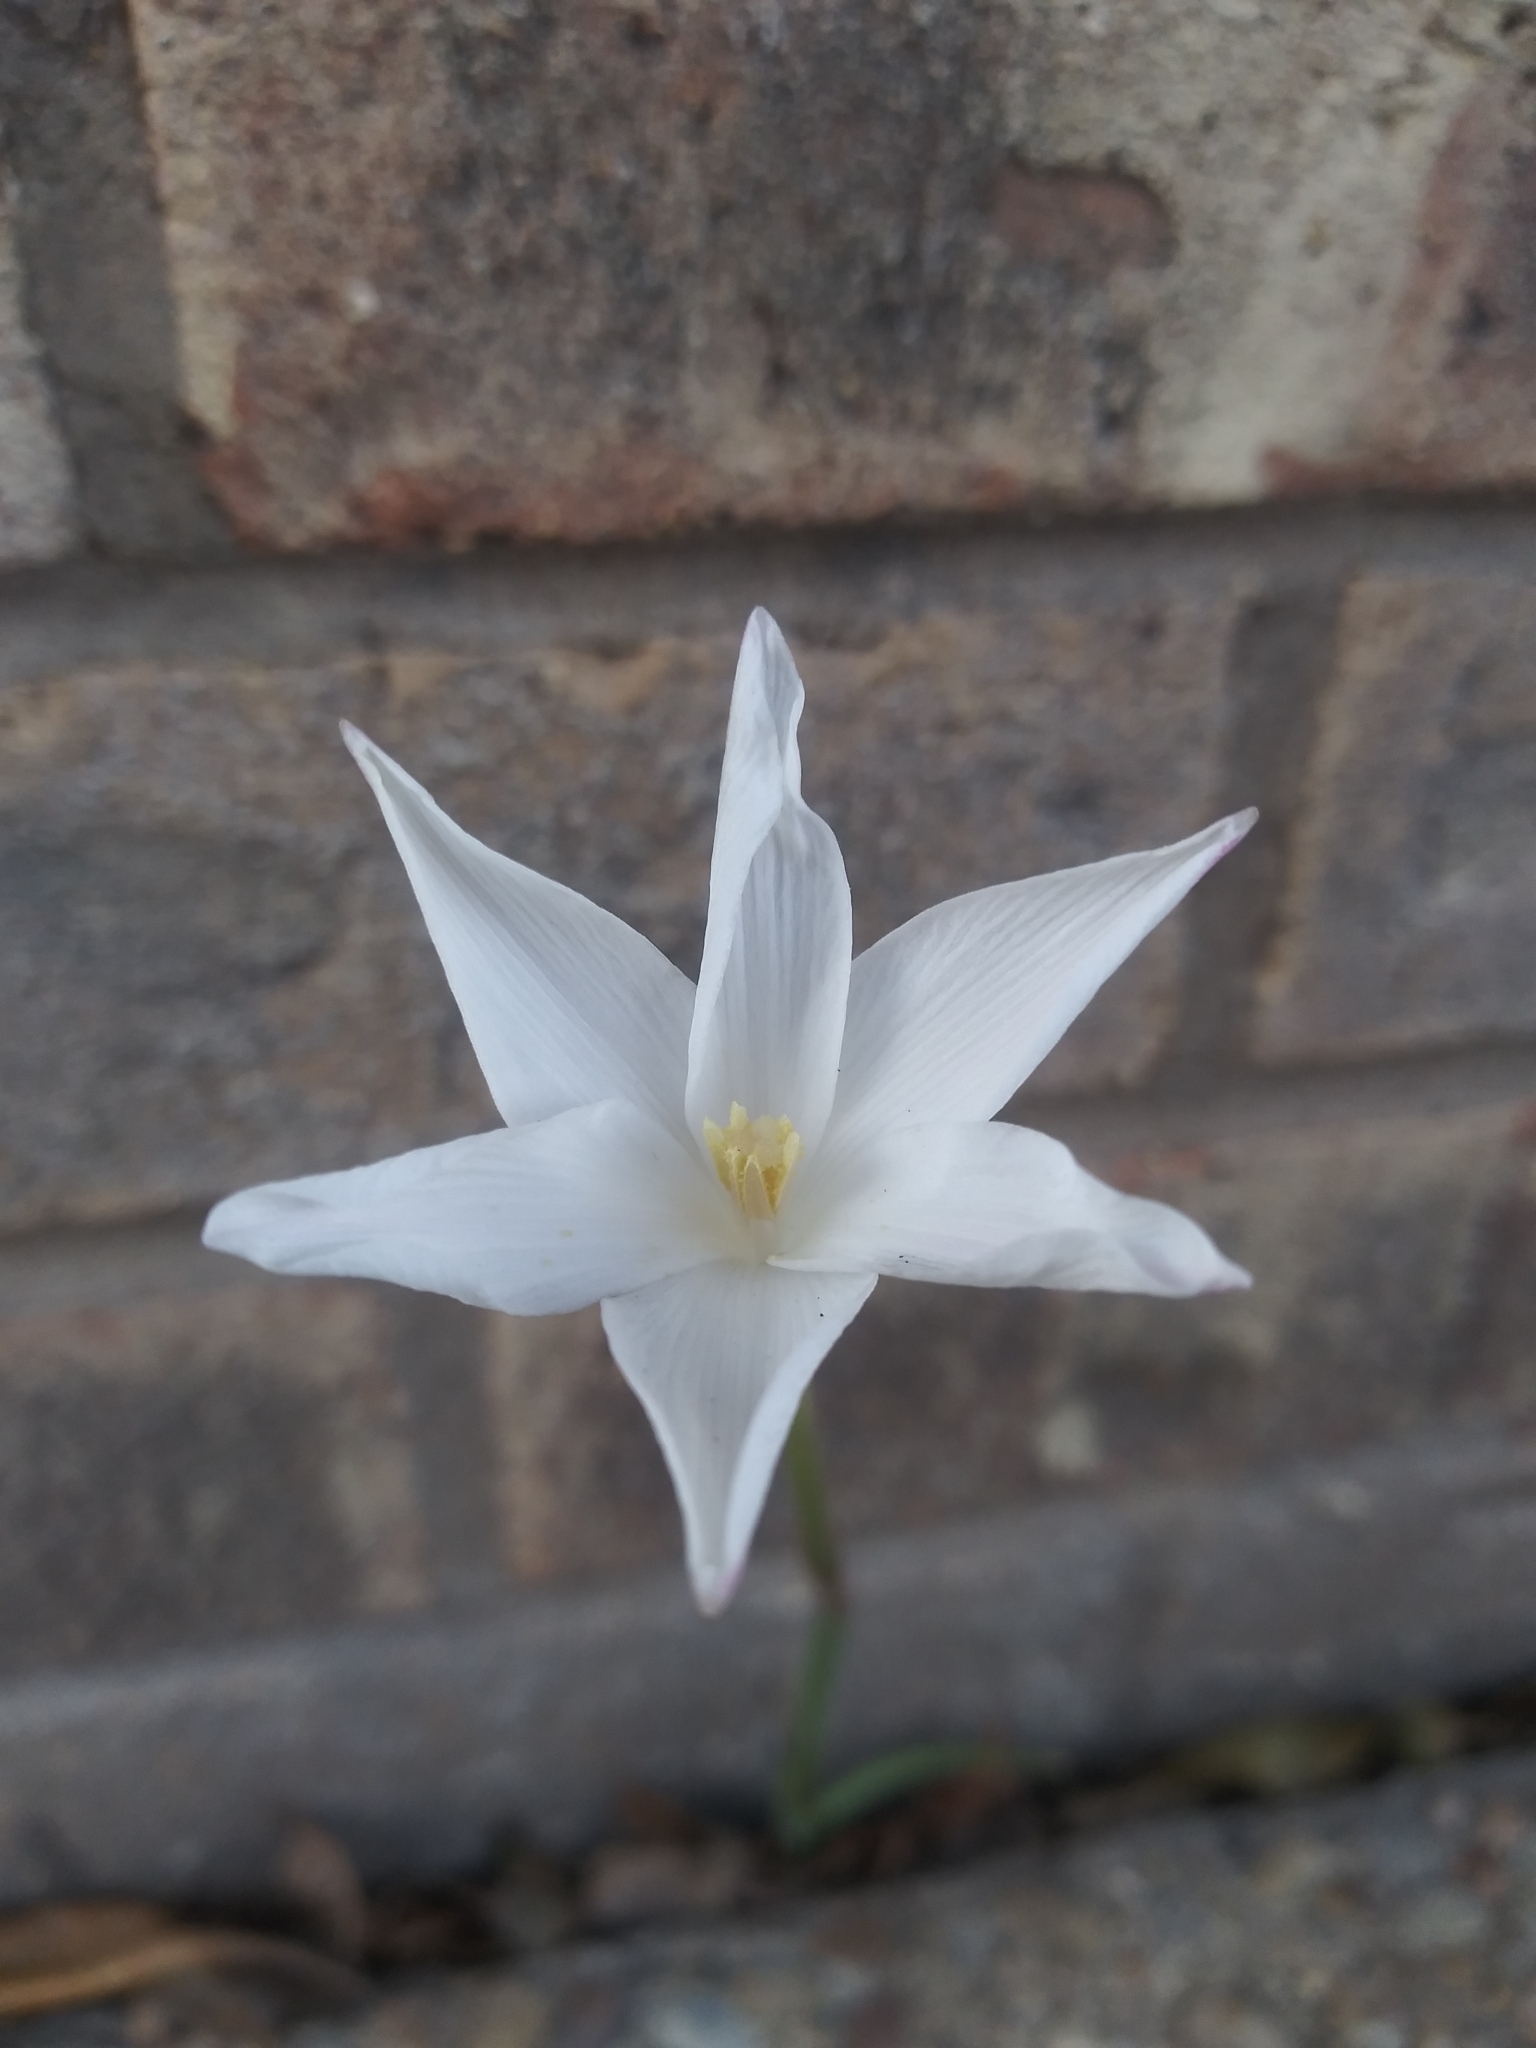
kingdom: Plantae
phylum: Tracheophyta
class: Liliopsida
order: Asparagales
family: Amaryllidaceae
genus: Zephyranthes
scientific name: Zephyranthes chlorosolen
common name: Evening rain-lily
